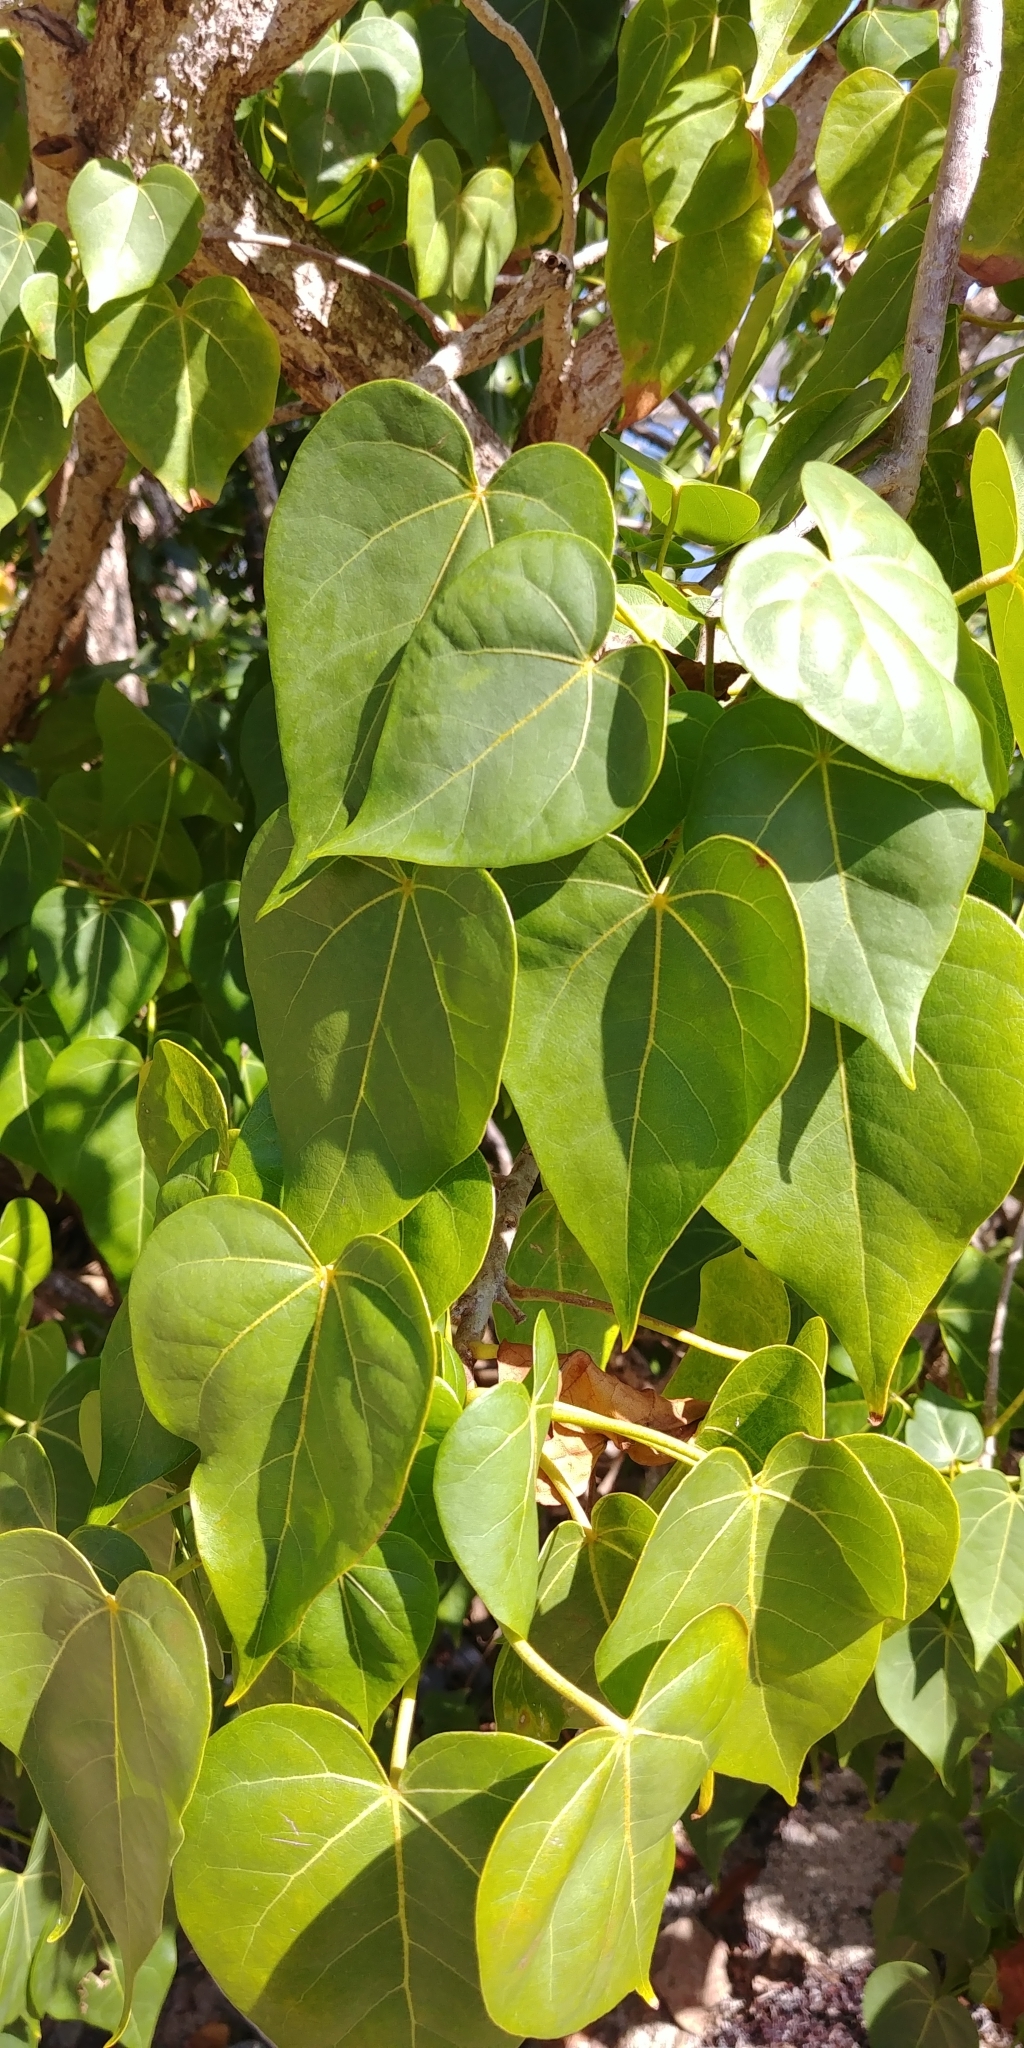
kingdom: Plantae
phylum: Tracheophyta
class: Magnoliopsida
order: Malvales
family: Malvaceae
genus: Thespesia
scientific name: Thespesia populnea
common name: Seaside mahoe
